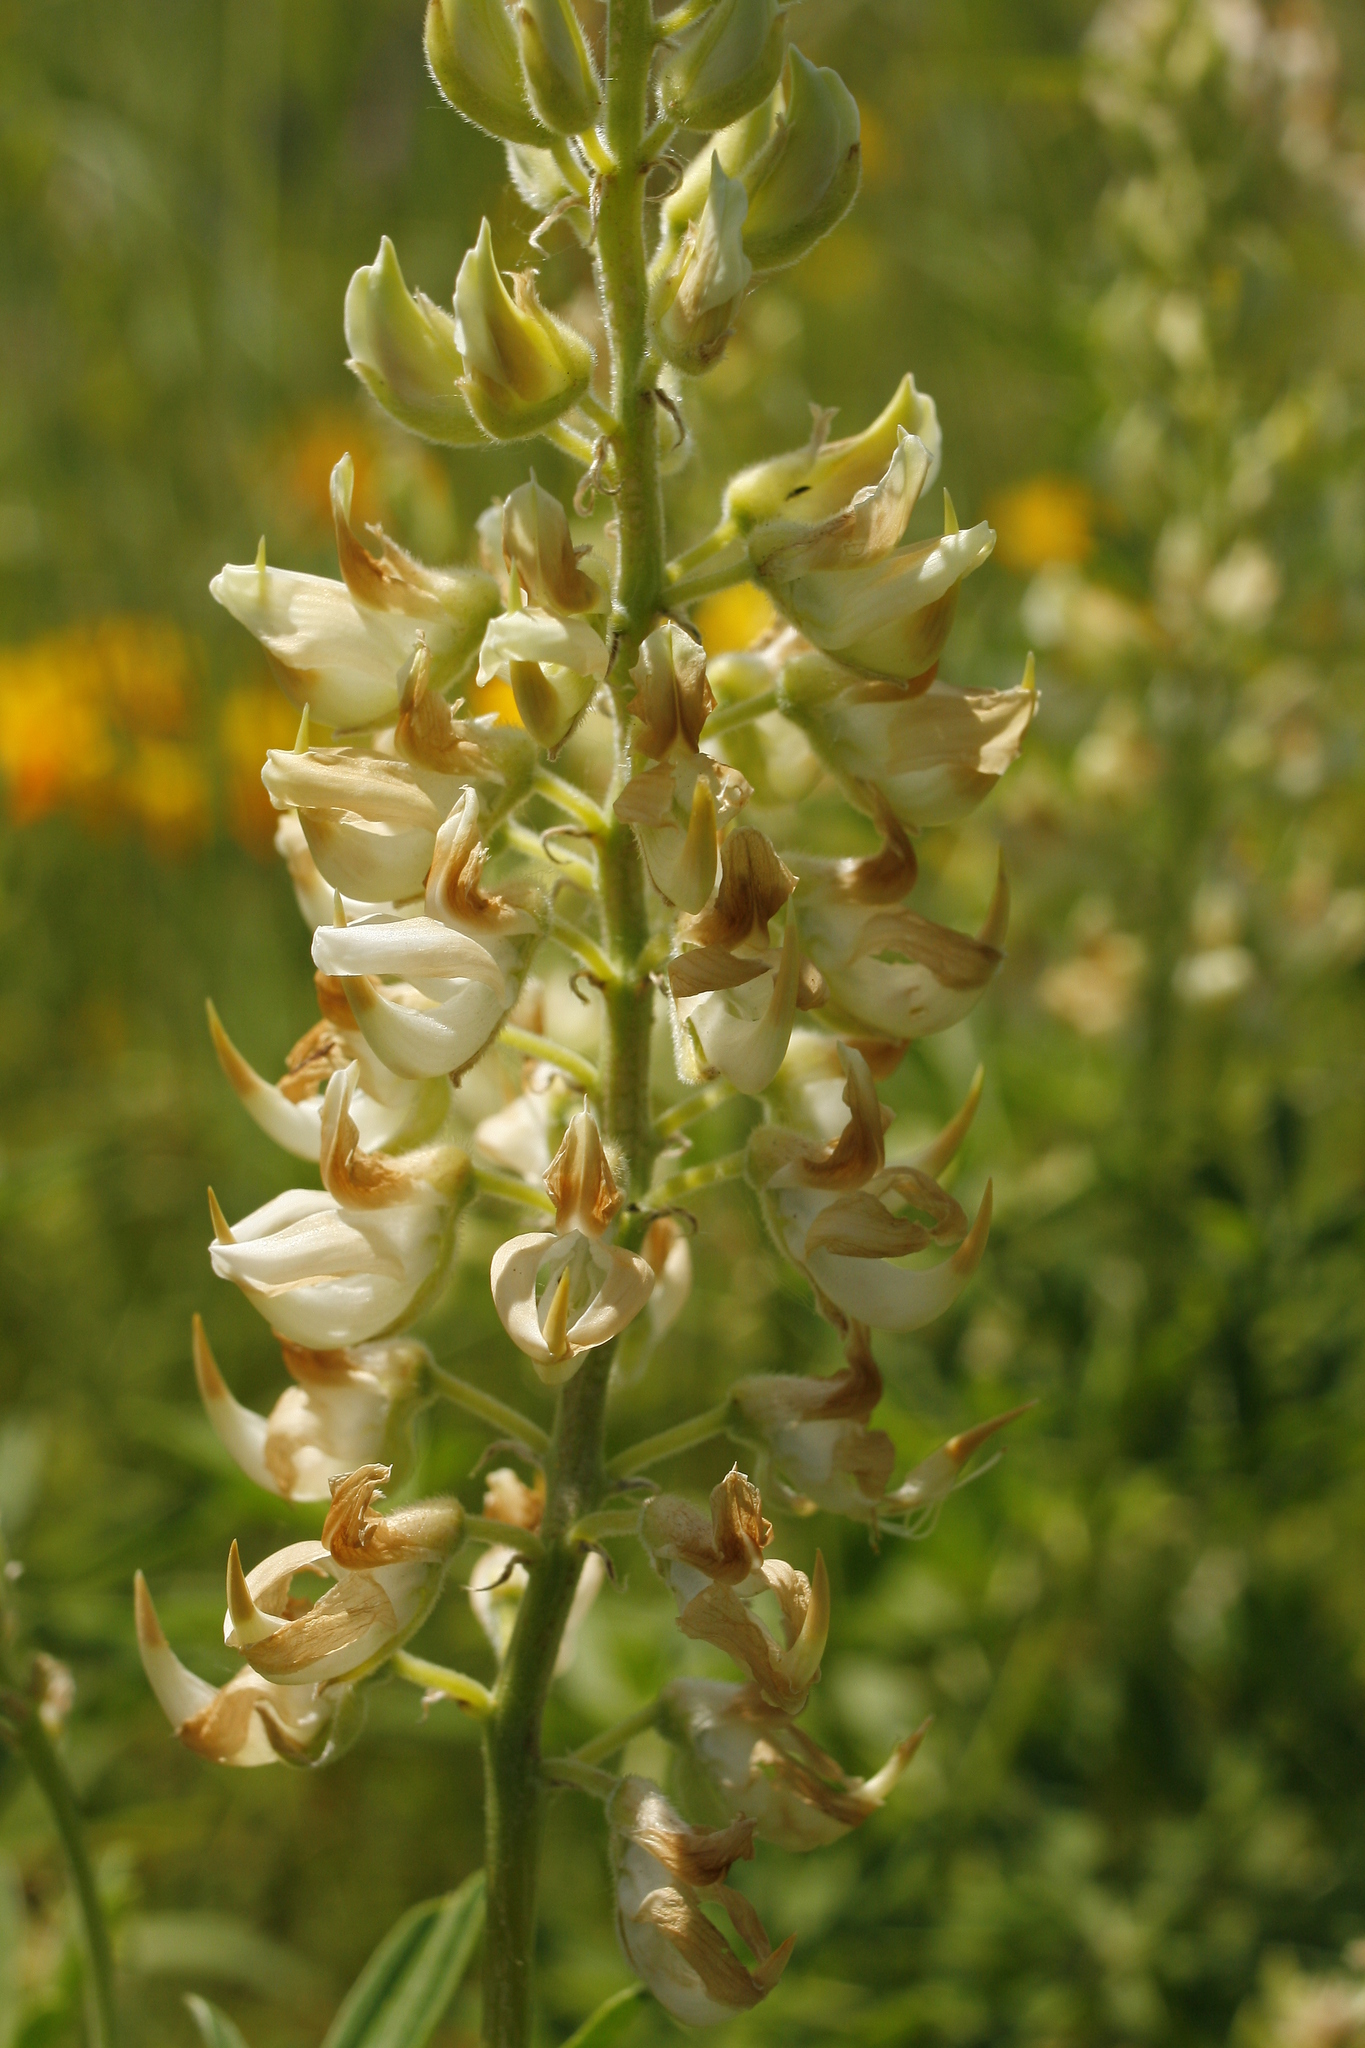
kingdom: Plantae
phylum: Tracheophyta
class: Magnoliopsida
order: Fabales
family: Fabaceae
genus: Lupinus
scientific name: Lupinus albicaulis
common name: Pine lupine
